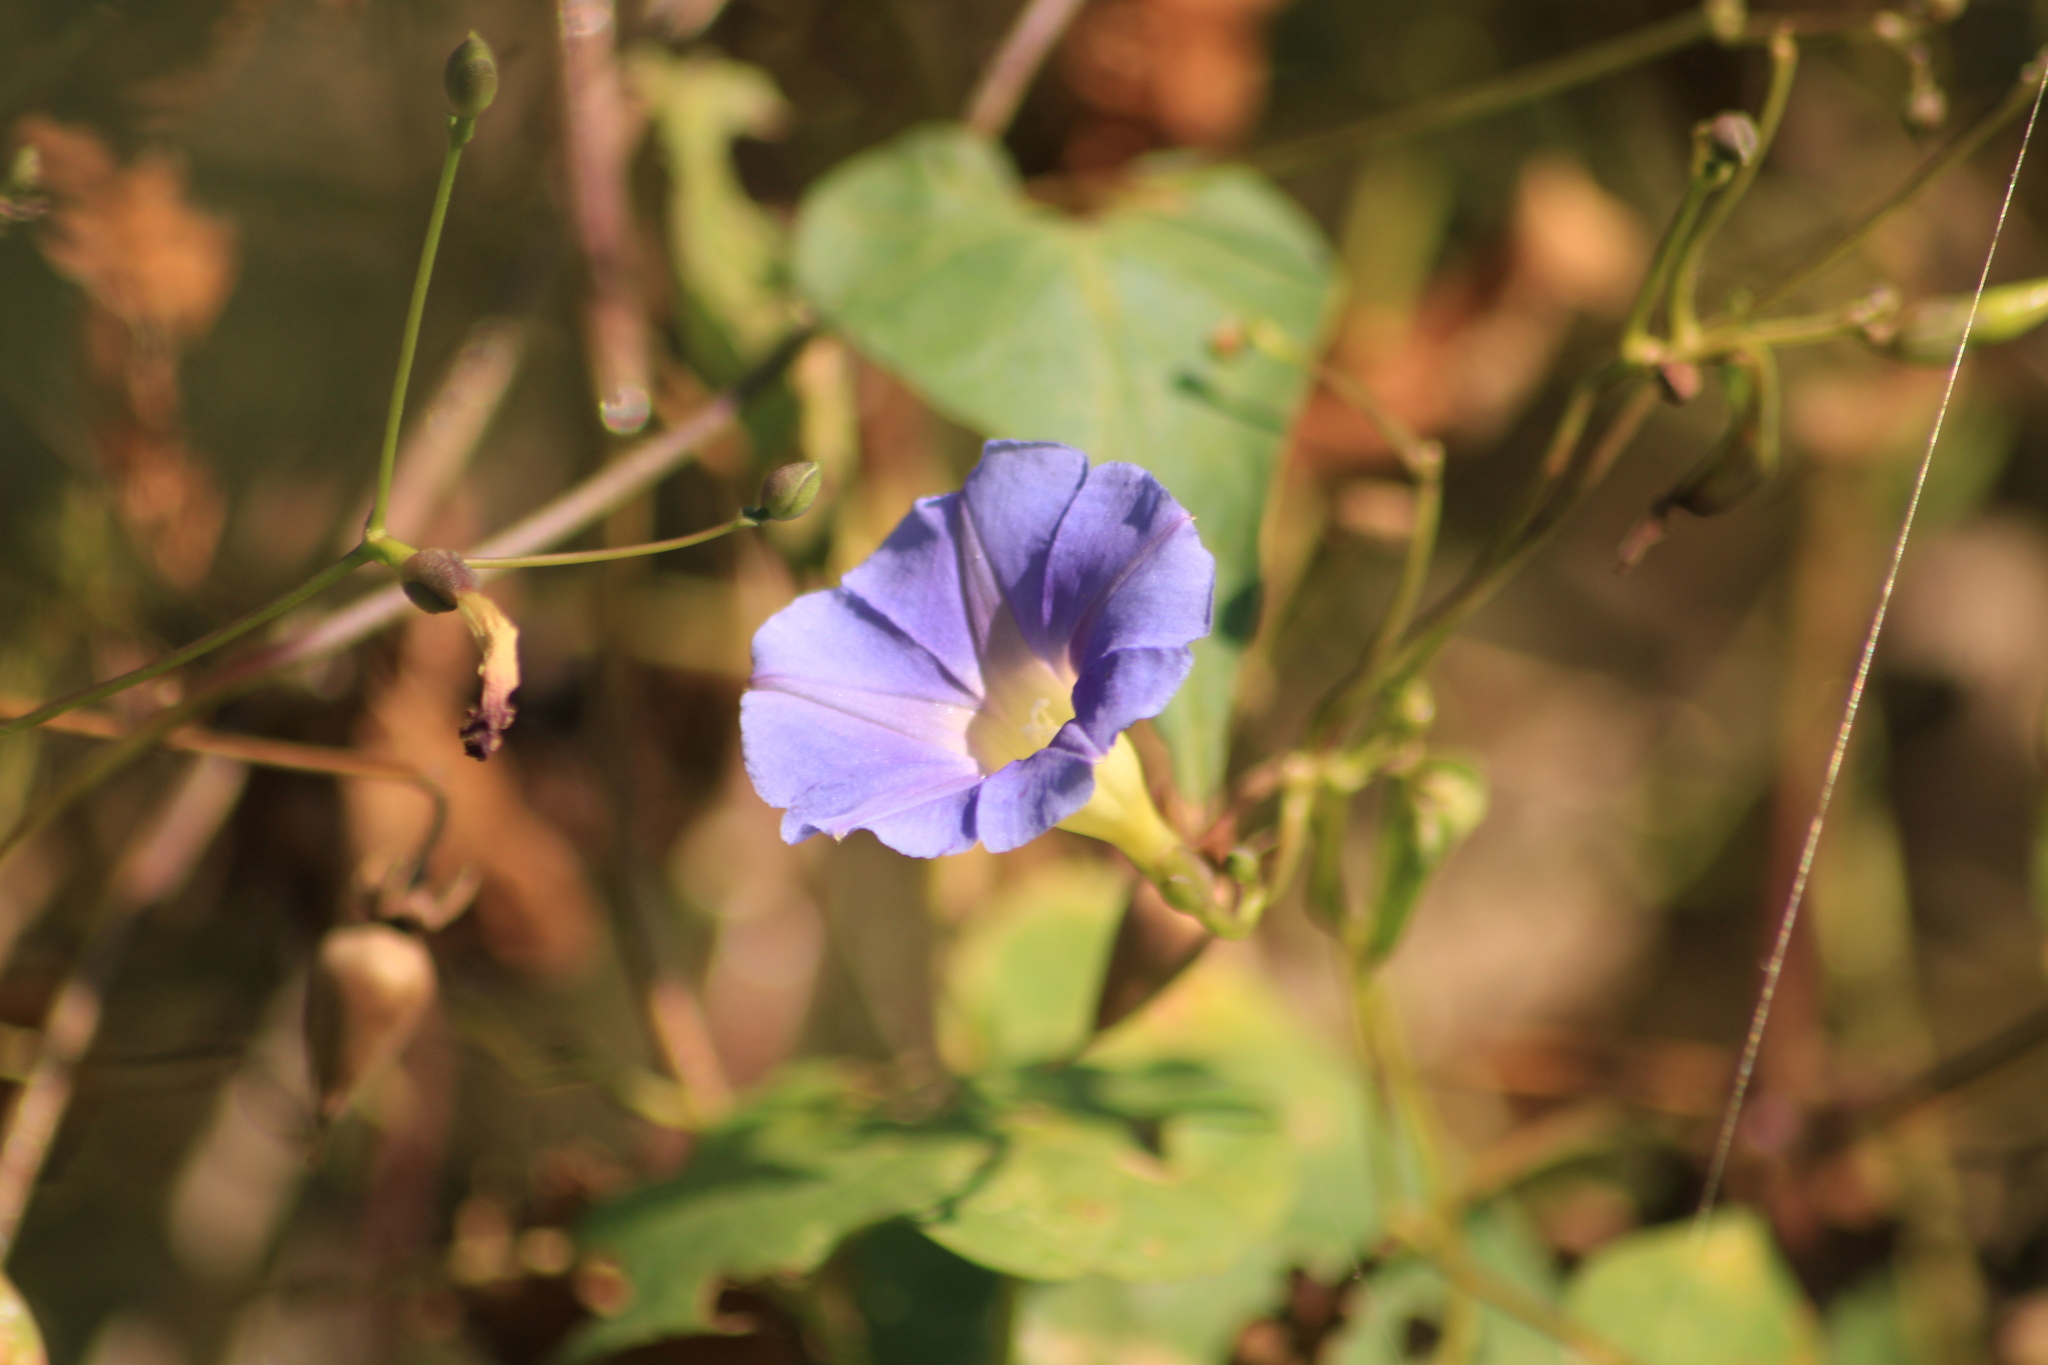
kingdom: Plantae
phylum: Tracheophyta
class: Magnoliopsida
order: Solanales
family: Convolvulaceae
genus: Ipomoea
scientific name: Ipomoea parasitica
